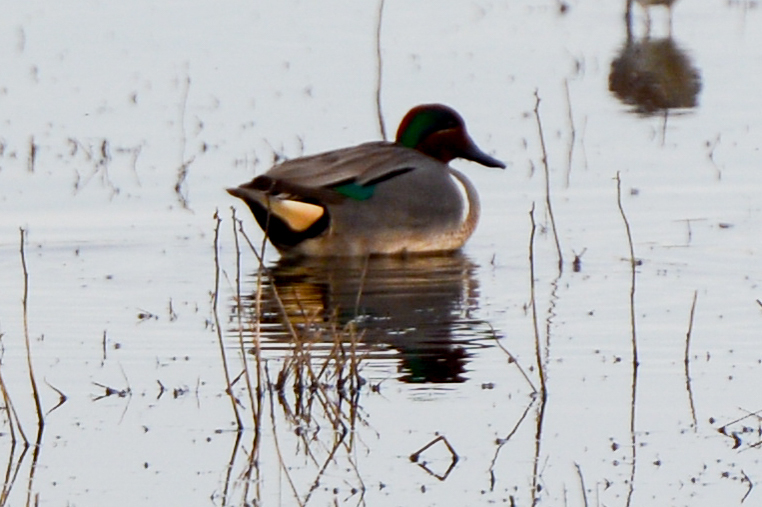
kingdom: Animalia
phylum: Chordata
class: Aves
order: Anseriformes
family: Anatidae
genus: Anas
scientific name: Anas crecca
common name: Eurasian teal
